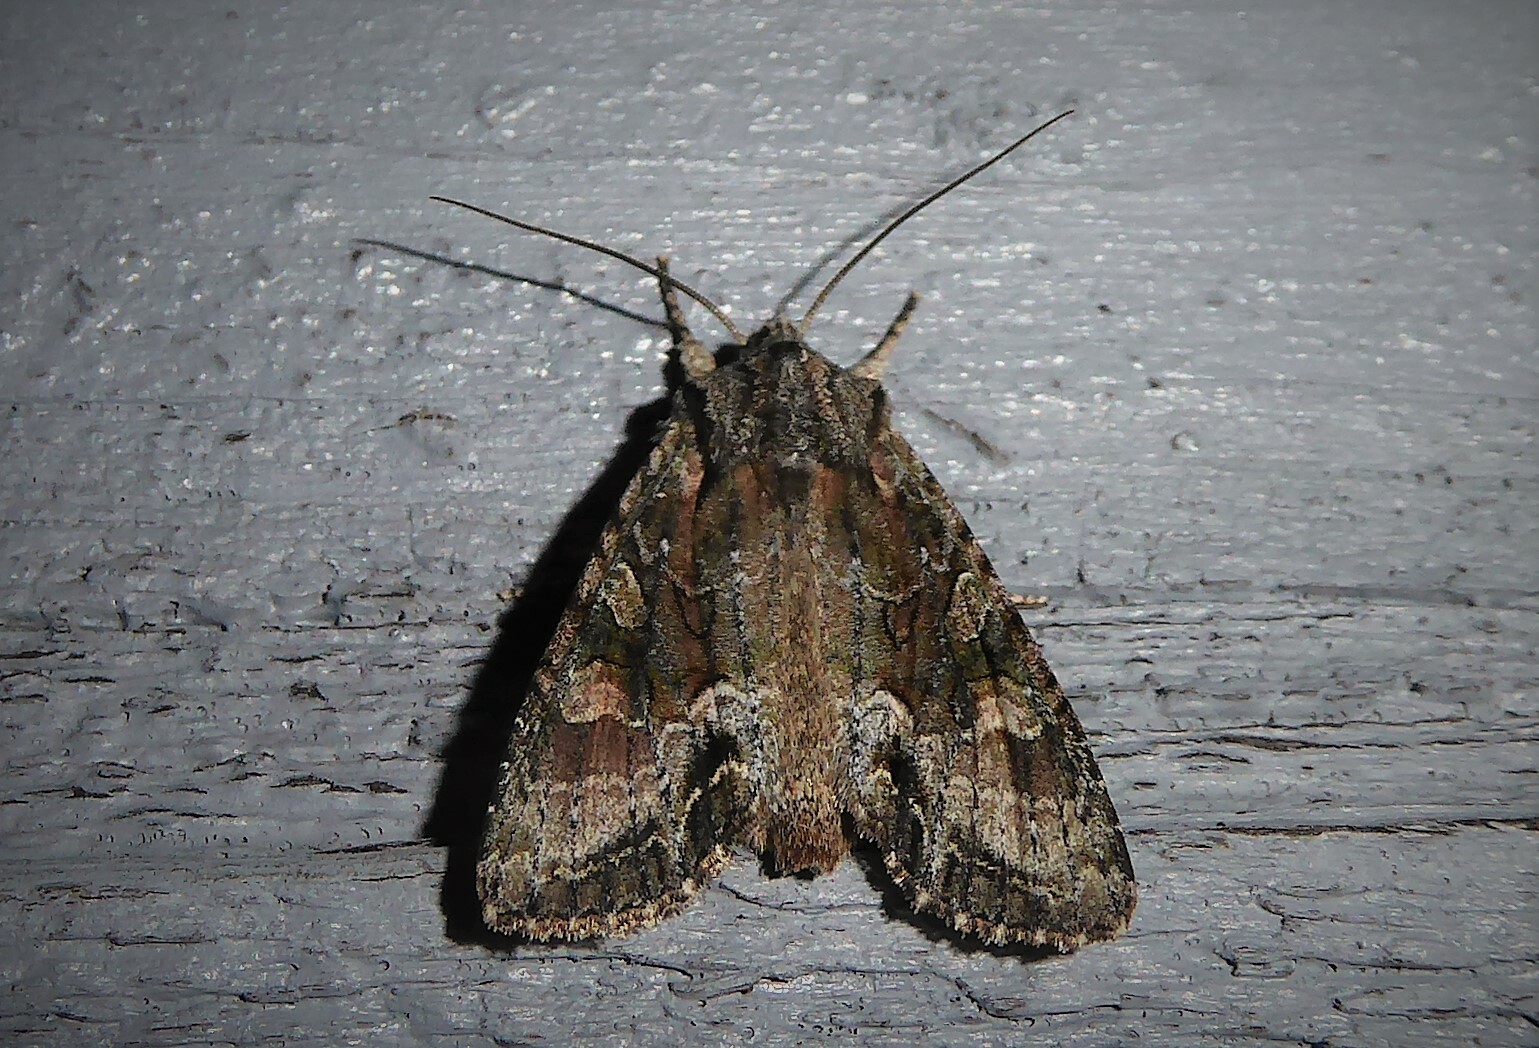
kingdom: Animalia
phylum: Arthropoda
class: Insecta
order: Lepidoptera
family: Noctuidae
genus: Ichneutica
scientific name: Ichneutica mutans
